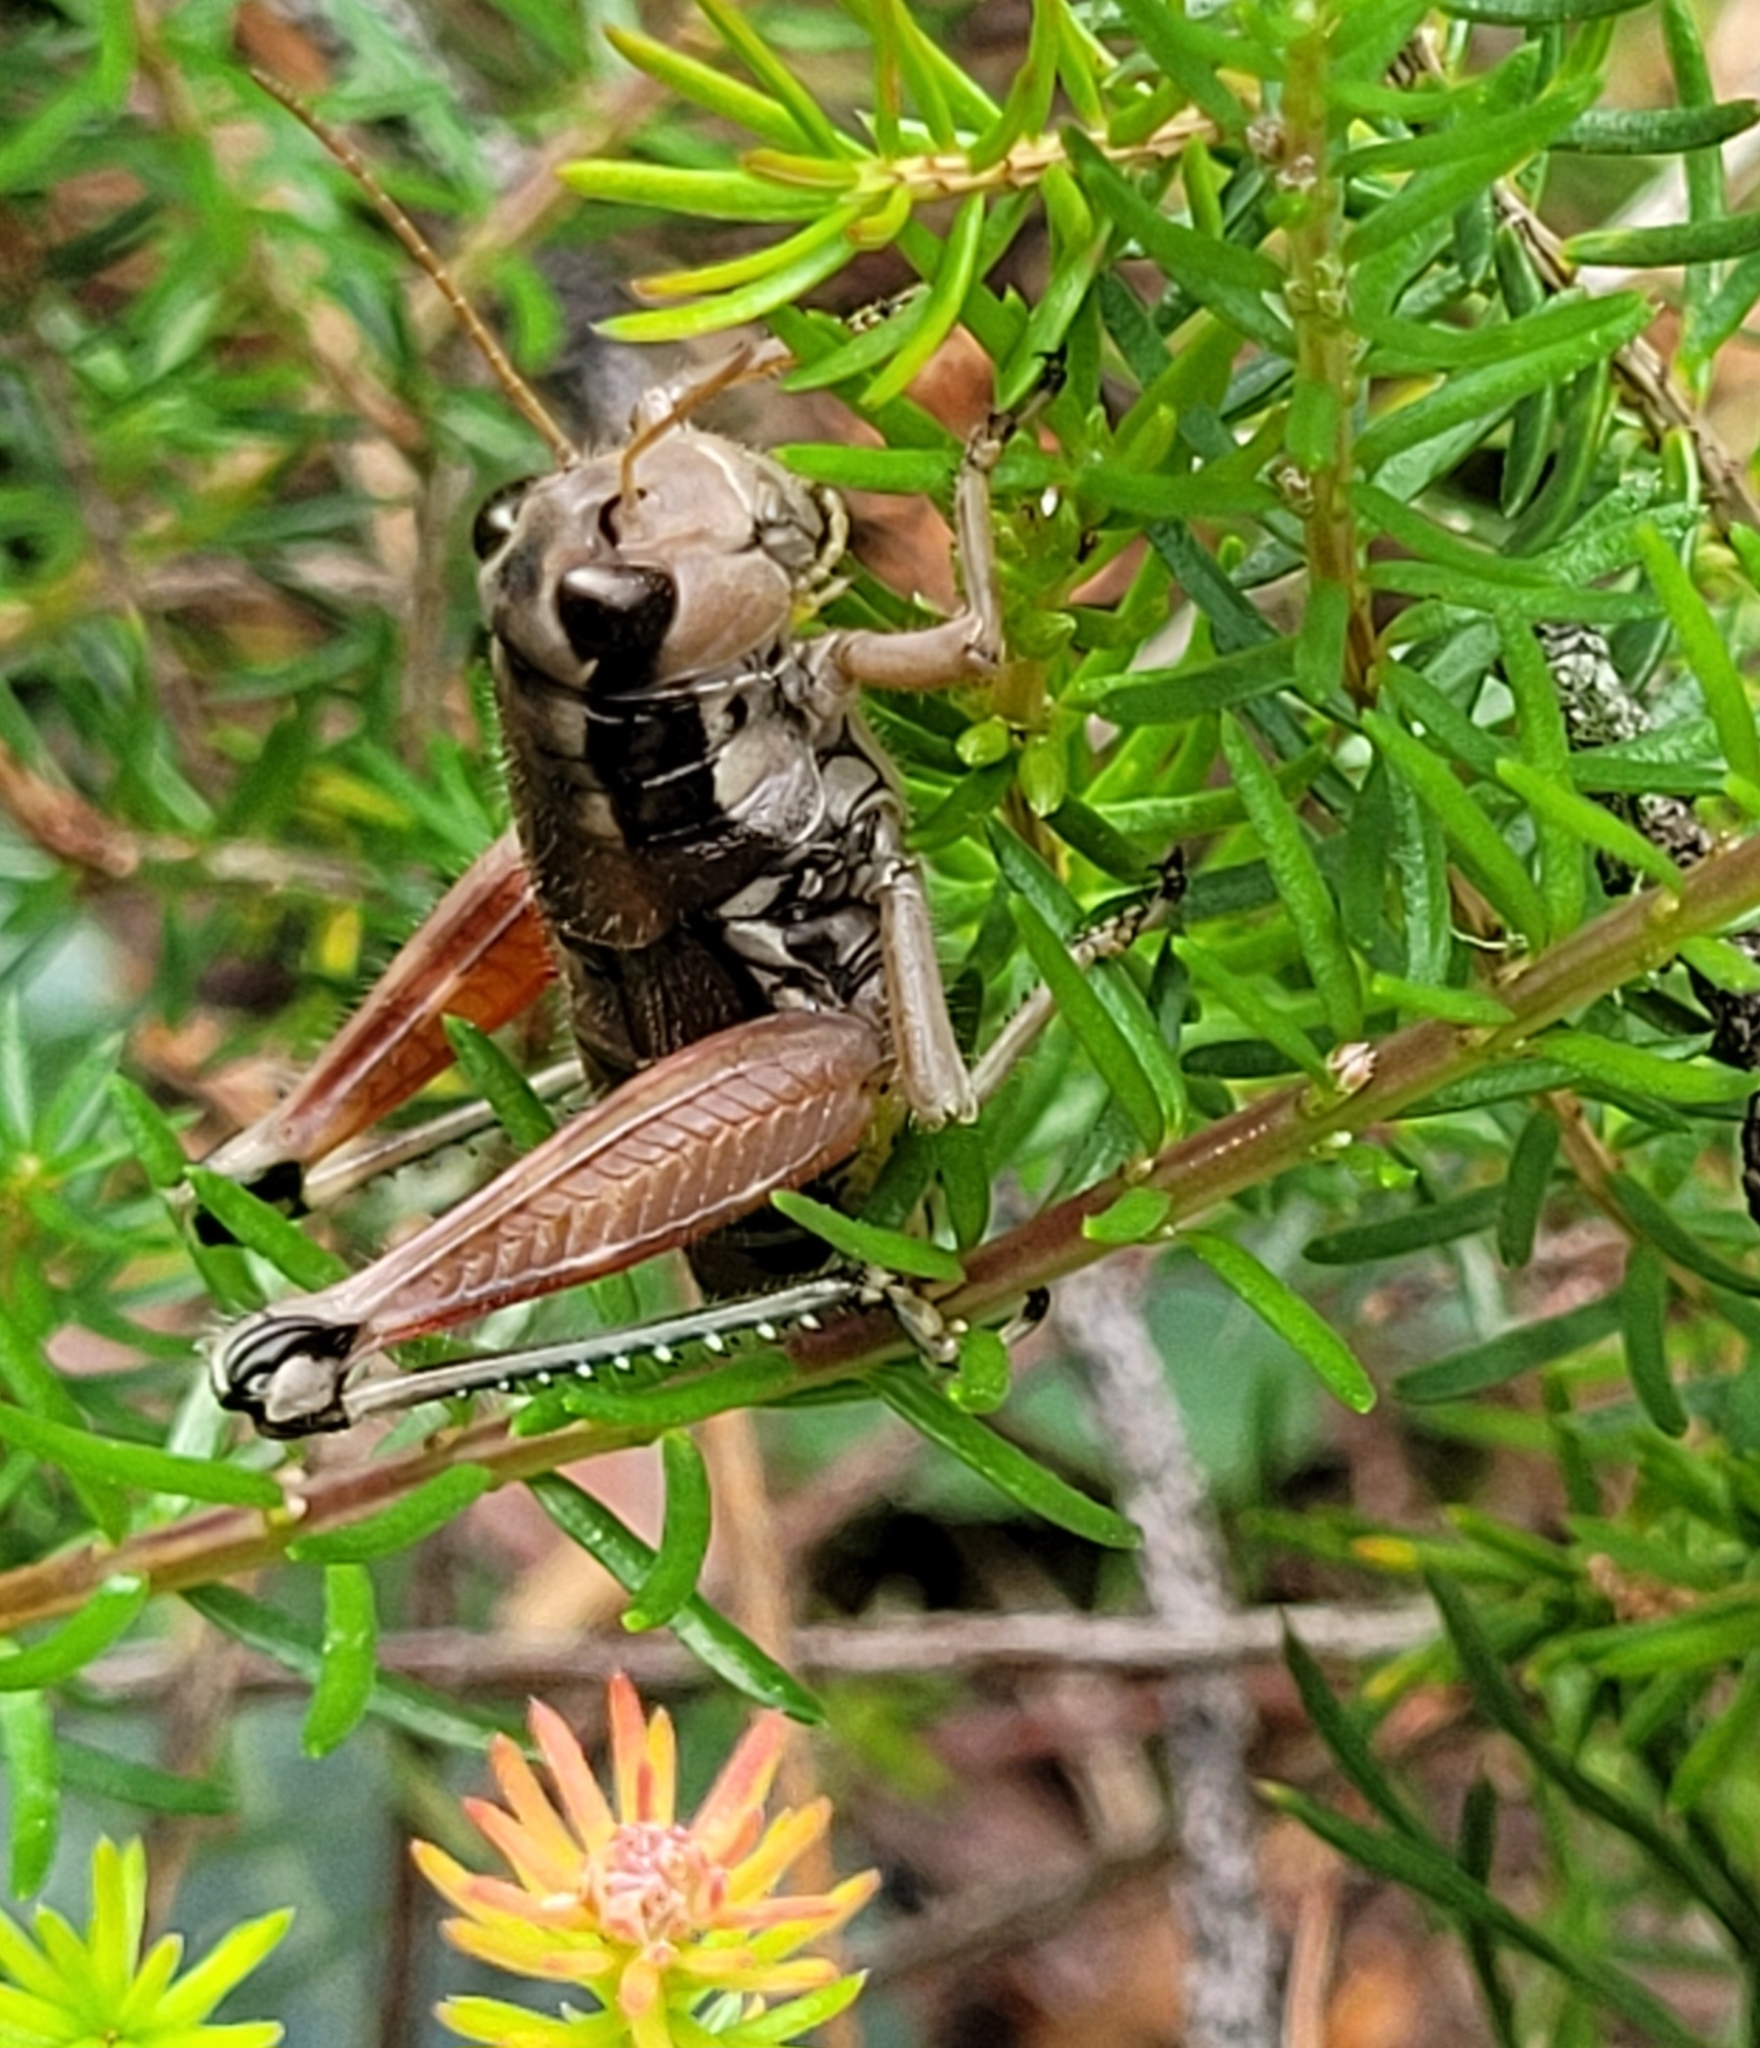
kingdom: Animalia
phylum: Arthropoda
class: Insecta
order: Orthoptera
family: Acrididae
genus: Podisma
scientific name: Podisma pedestris
